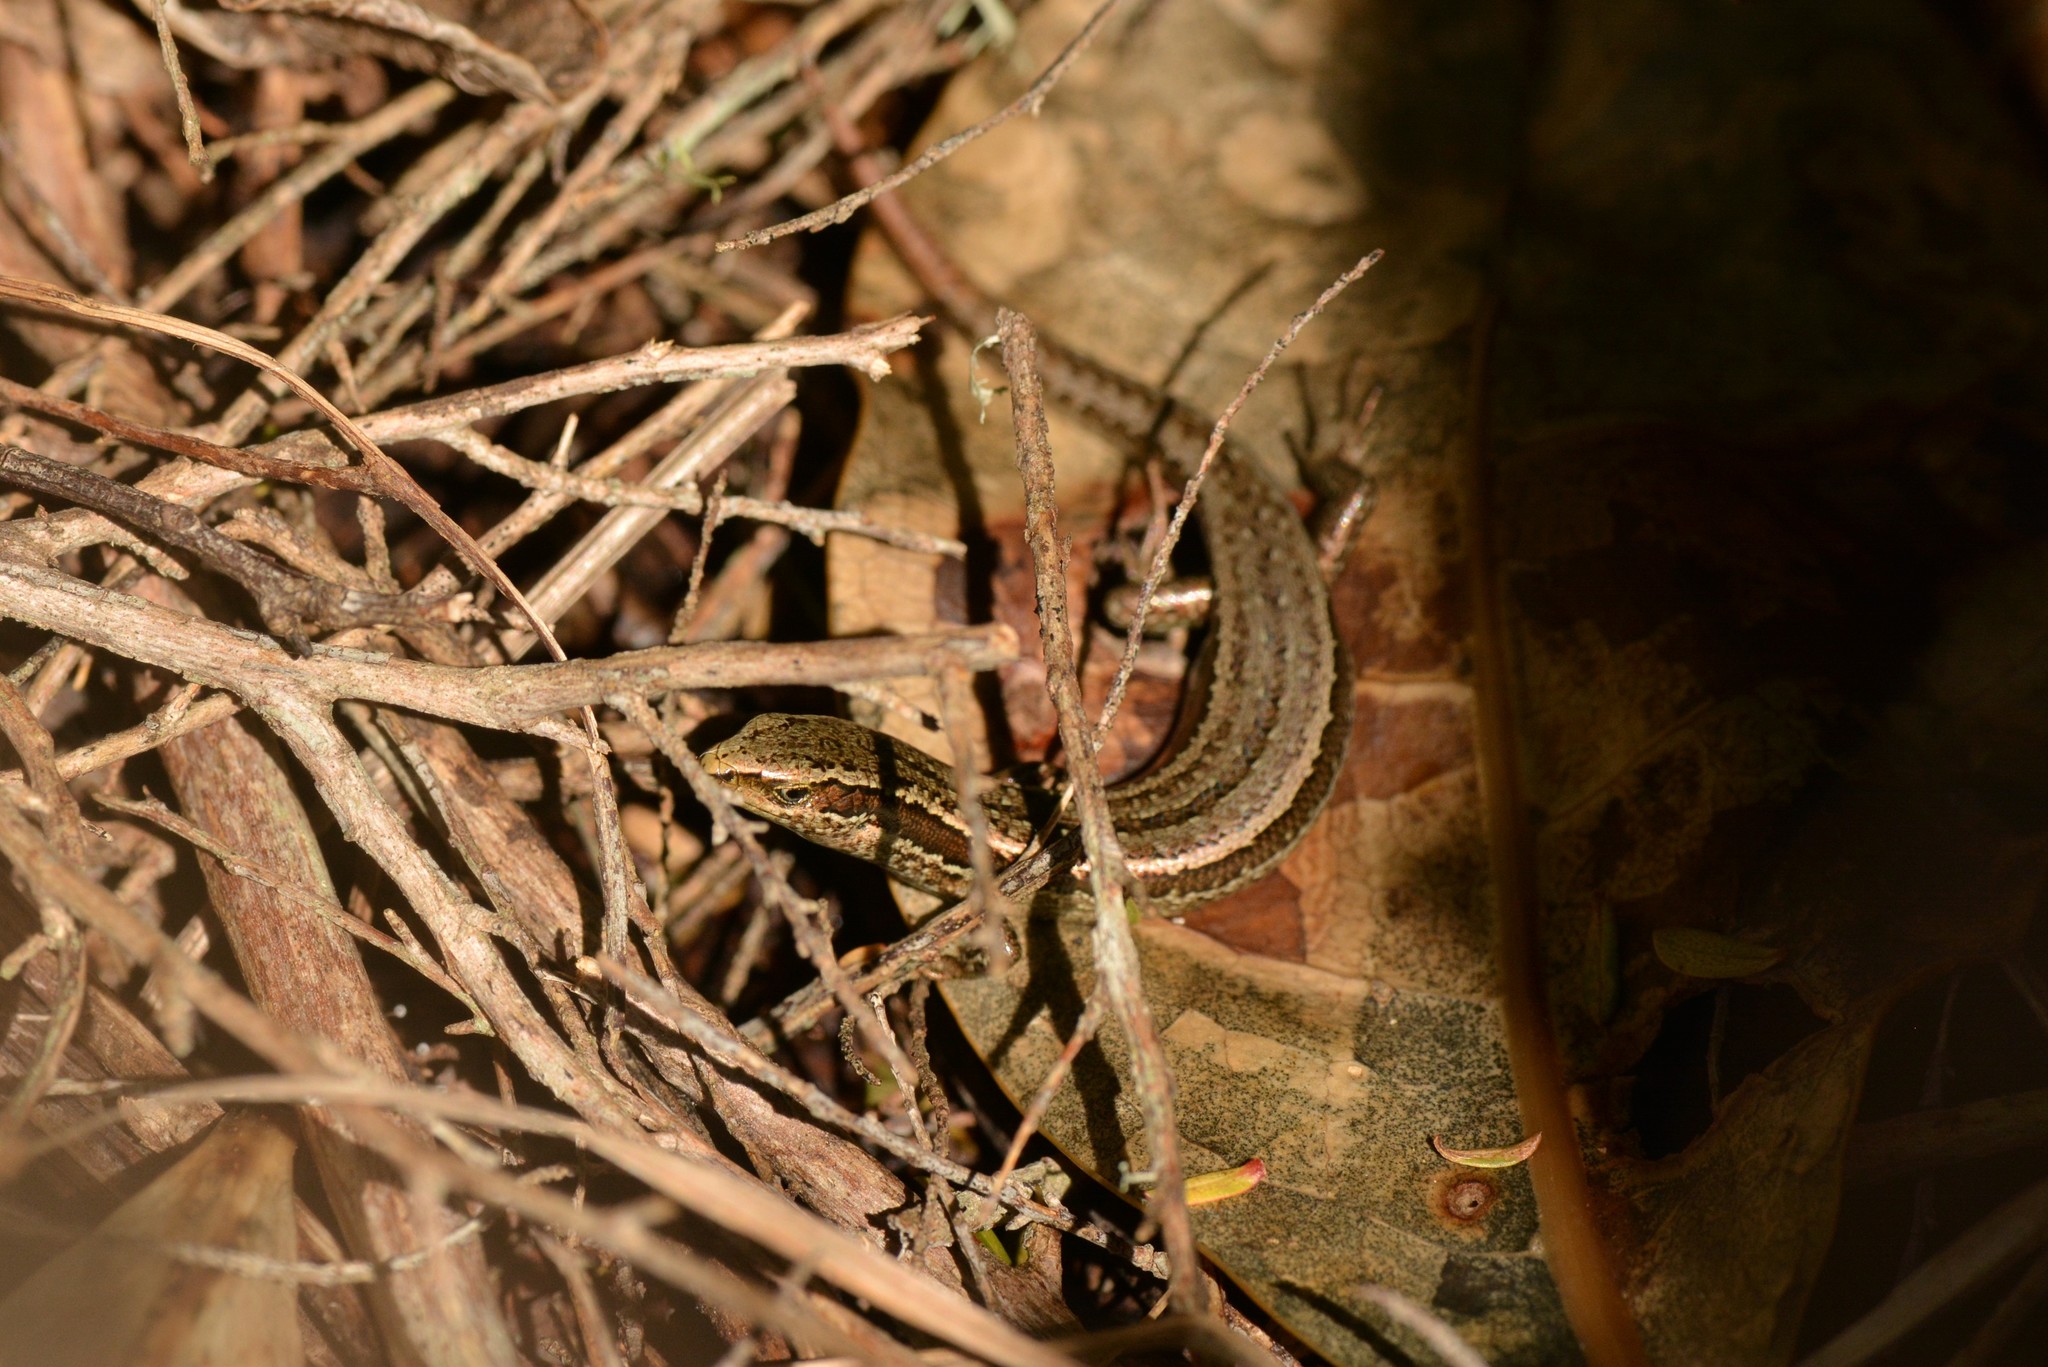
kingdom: Animalia
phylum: Chordata
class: Squamata
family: Scincidae
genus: Oligosoma
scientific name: Oligosoma polychroma
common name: Common new zealand skink
